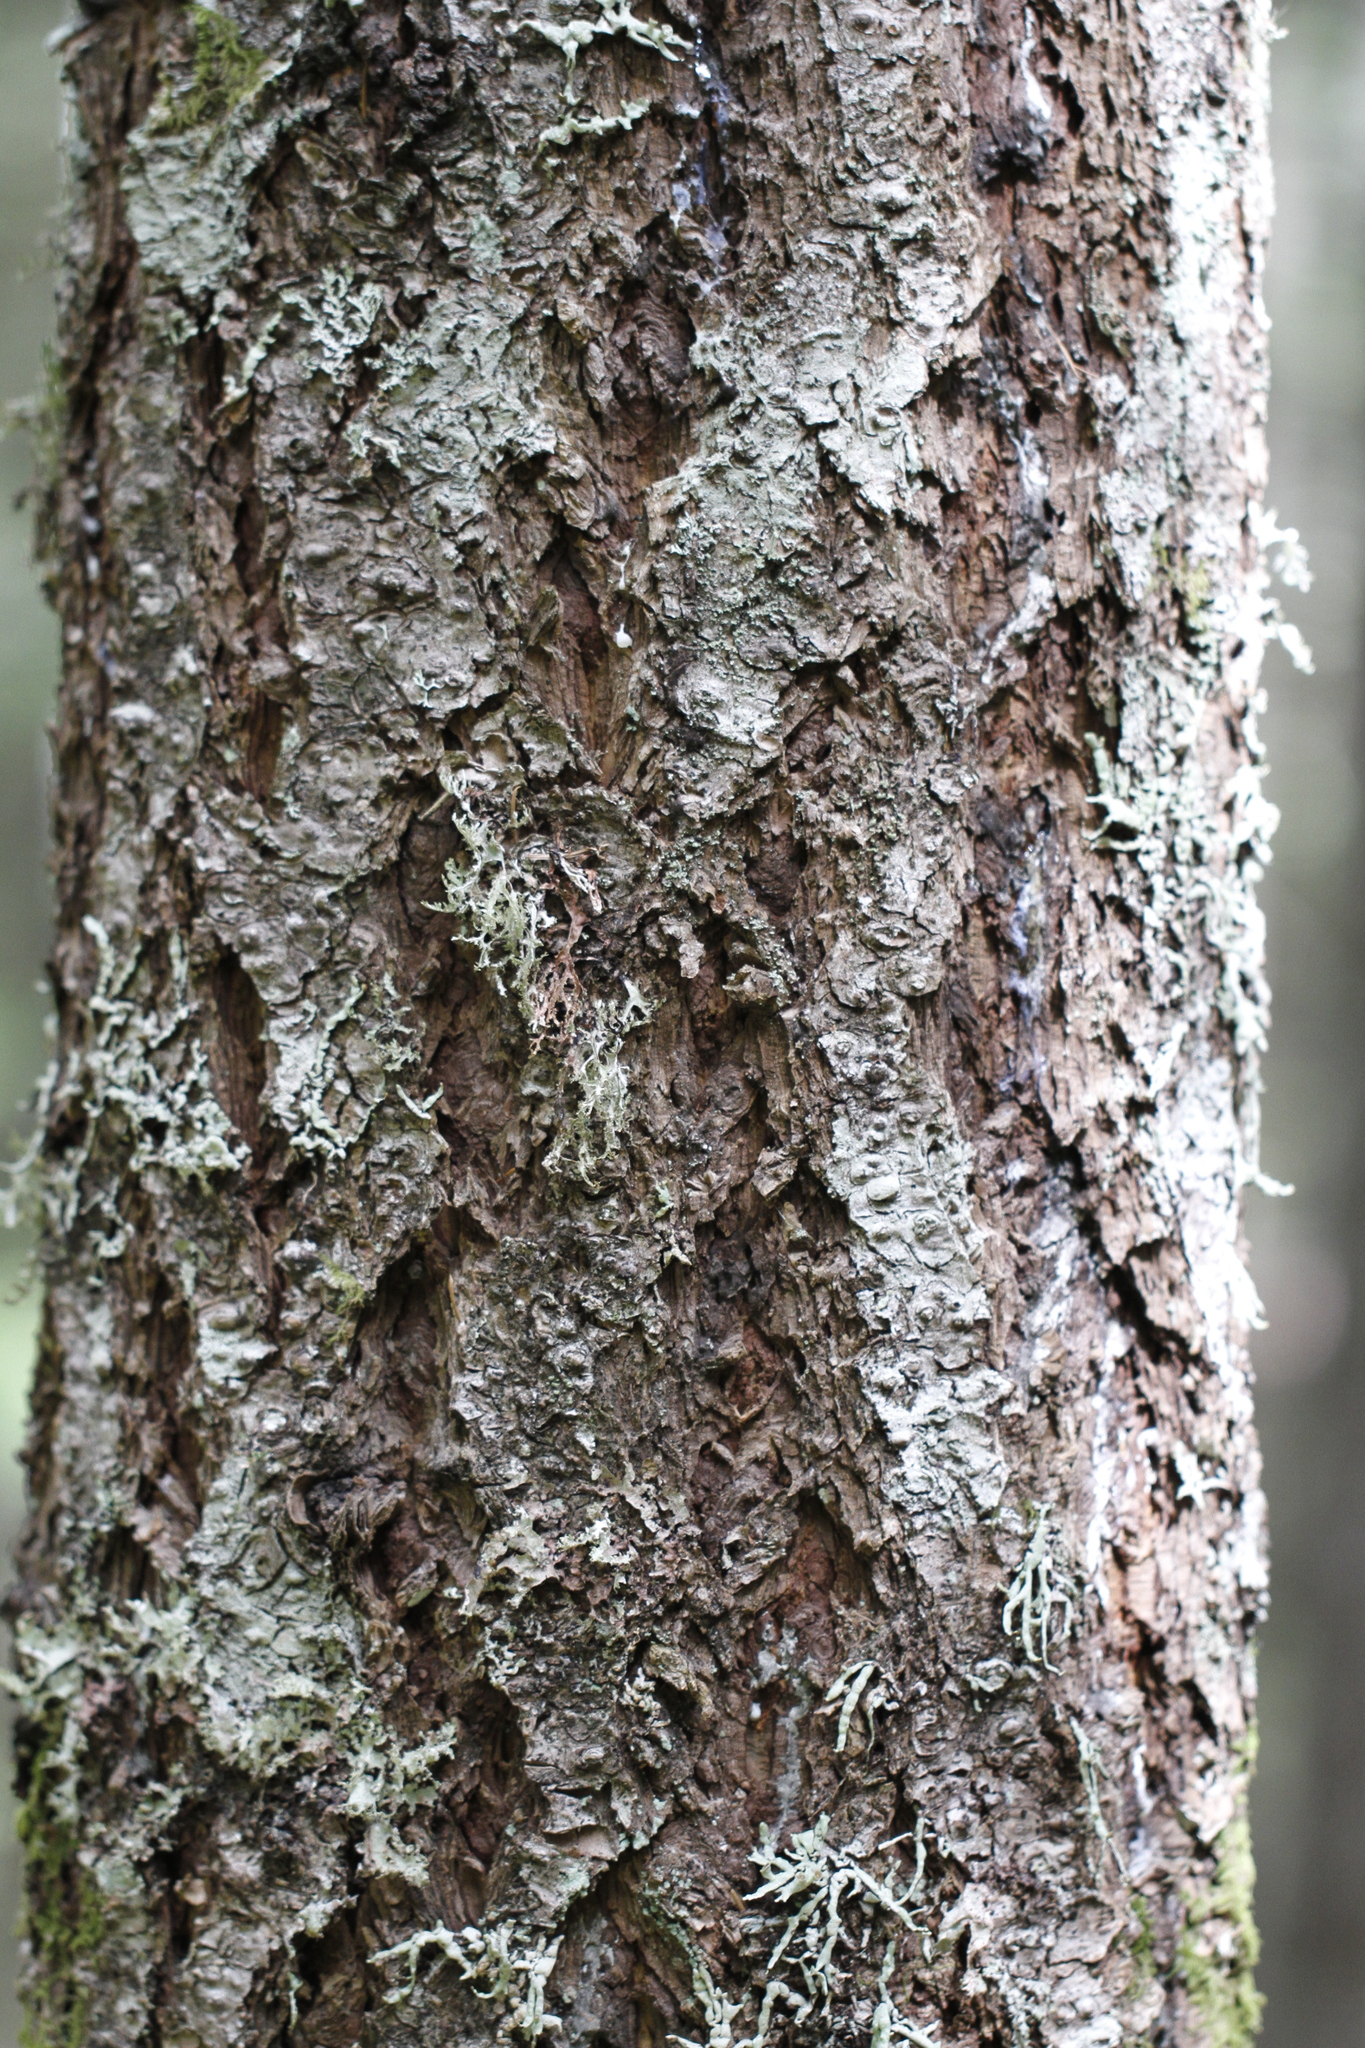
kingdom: Plantae
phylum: Tracheophyta
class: Pinopsida
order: Pinales
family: Pinaceae
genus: Pseudotsuga
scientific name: Pseudotsuga menziesii
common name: Douglas fir
